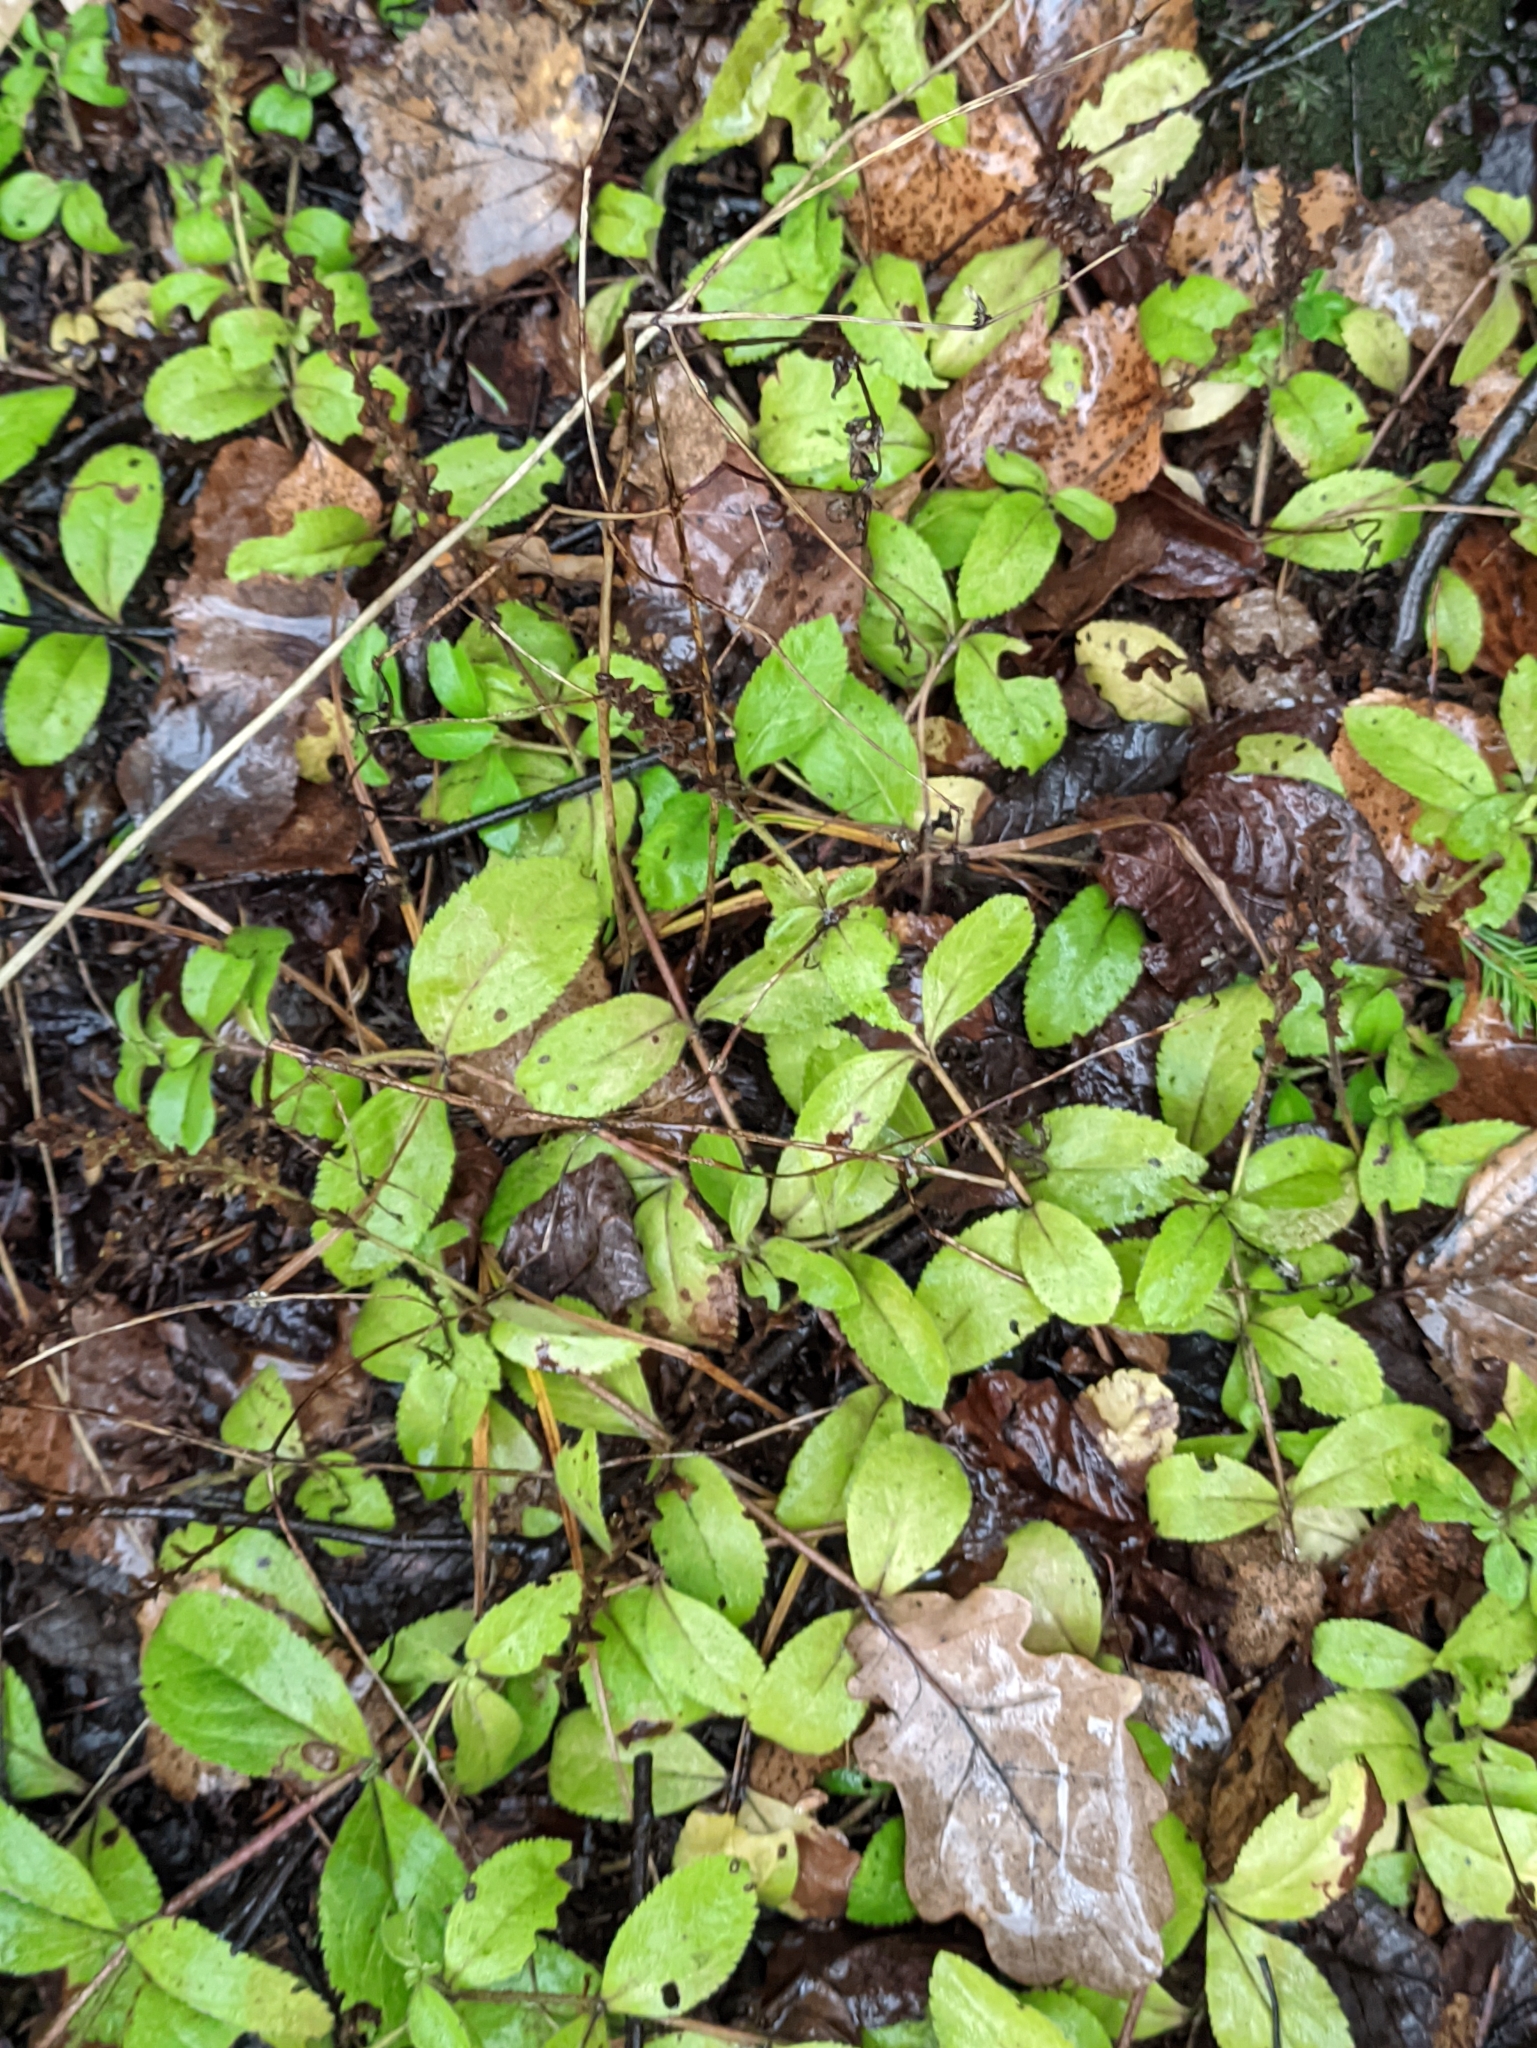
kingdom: Plantae
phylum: Tracheophyta
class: Magnoliopsida
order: Lamiales
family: Plantaginaceae
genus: Veronica
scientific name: Veronica officinalis
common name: Common speedwell
